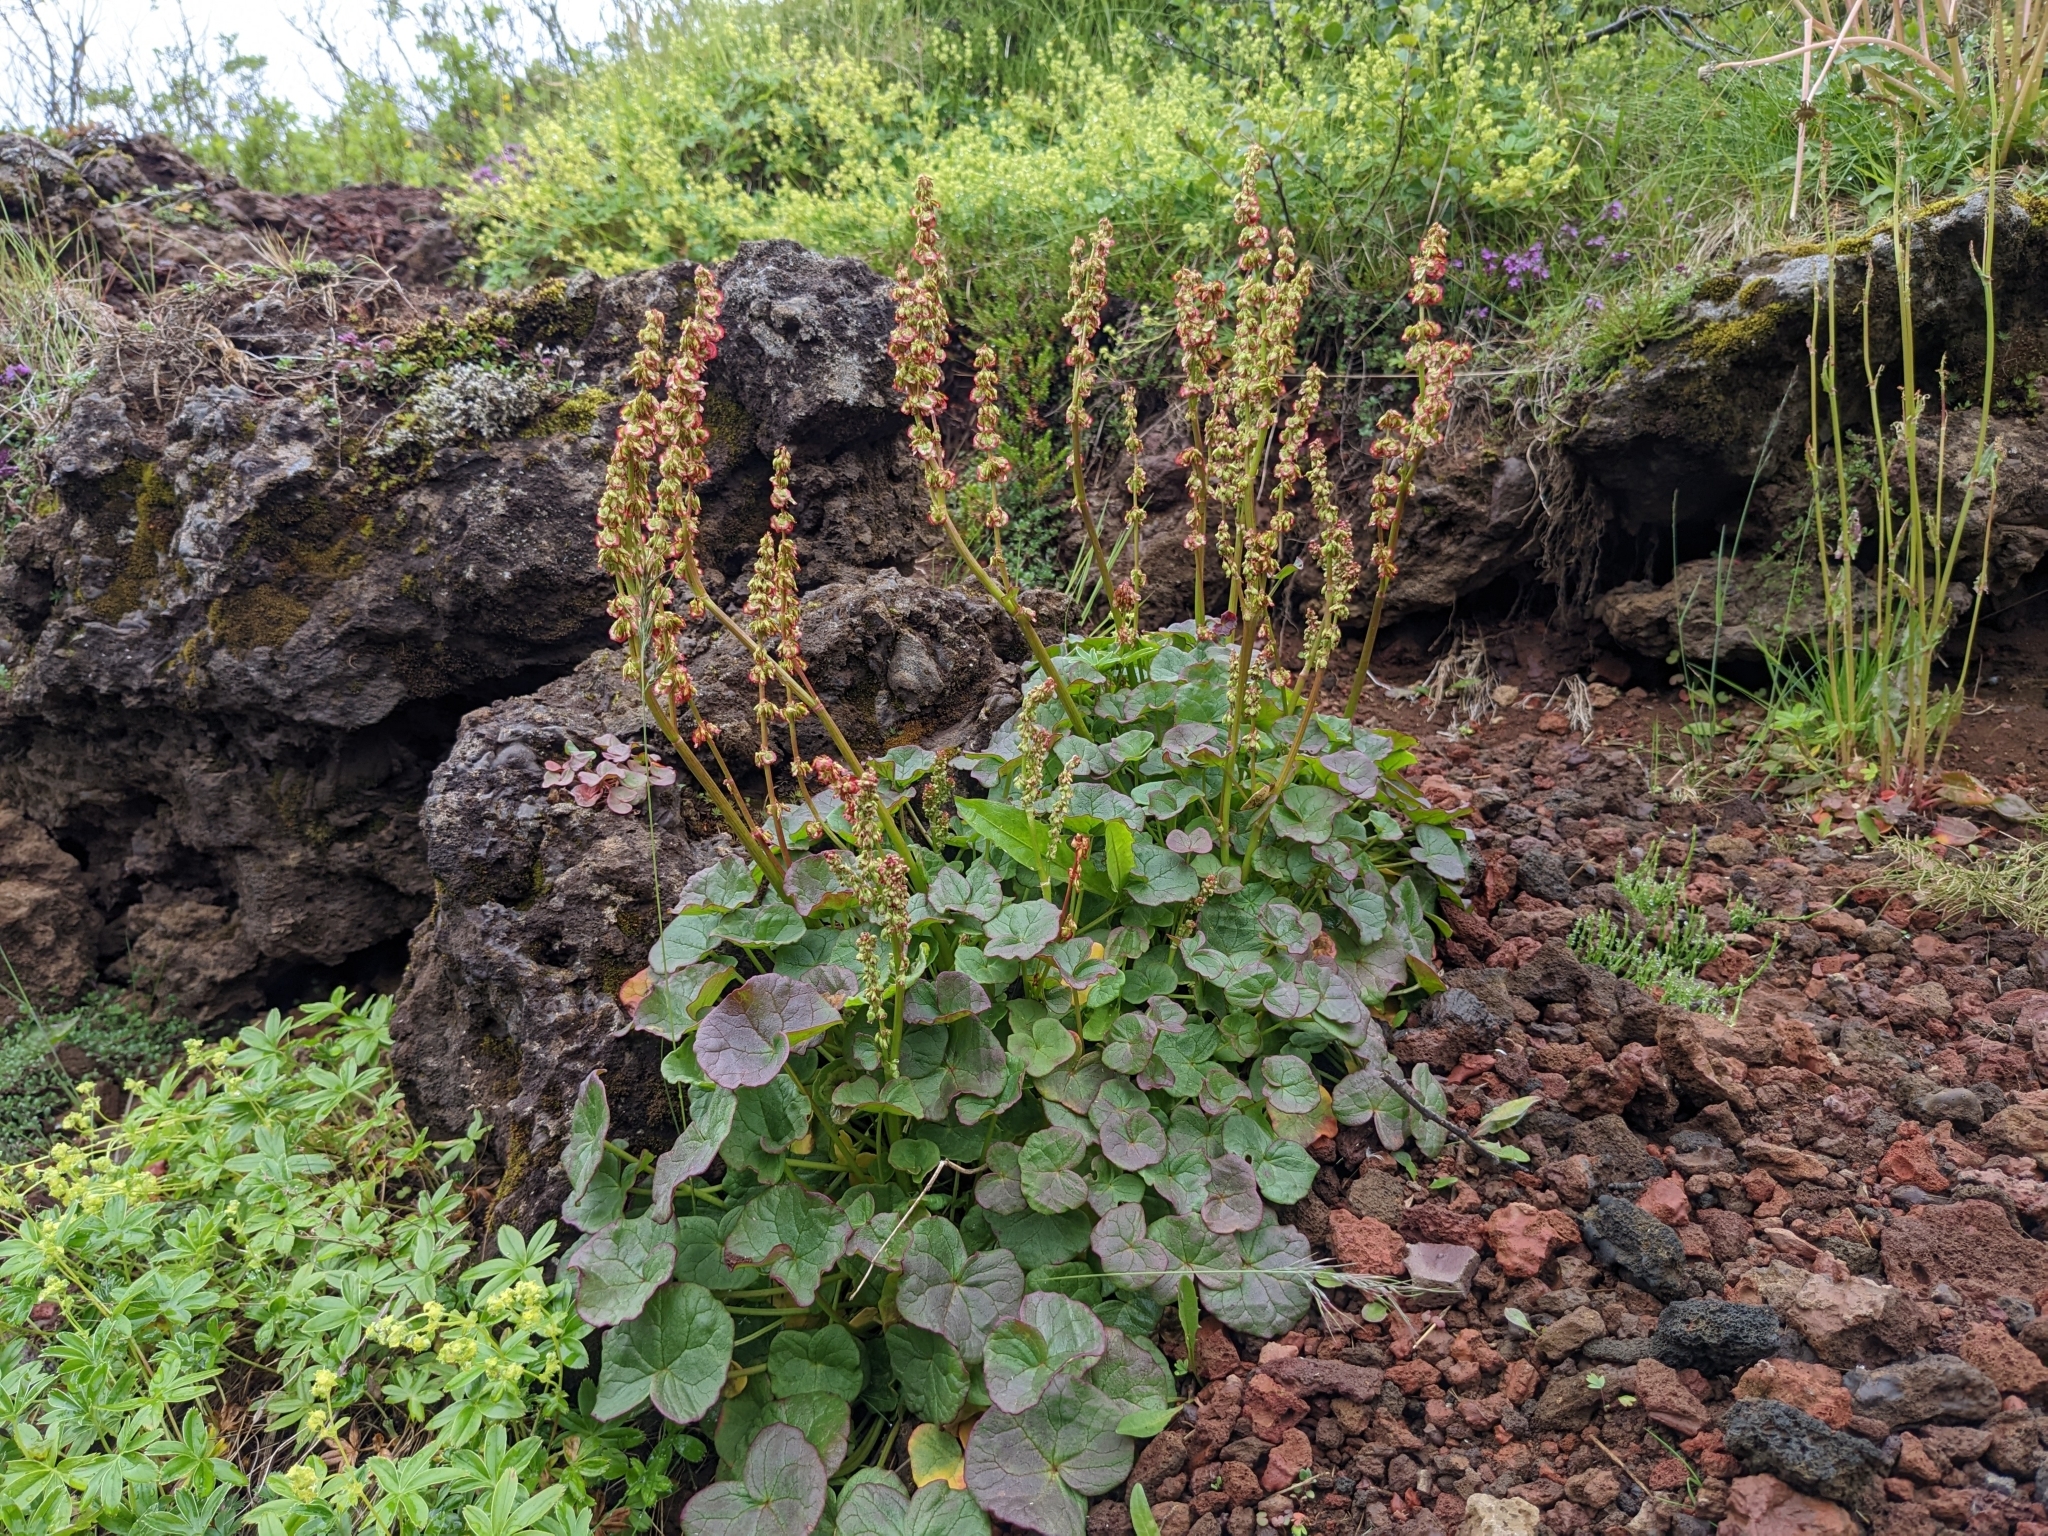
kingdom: Plantae
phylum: Tracheophyta
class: Magnoliopsida
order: Caryophyllales
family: Polygonaceae
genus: Oxyria
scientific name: Oxyria digyna
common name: Alpine mountain-sorrel
